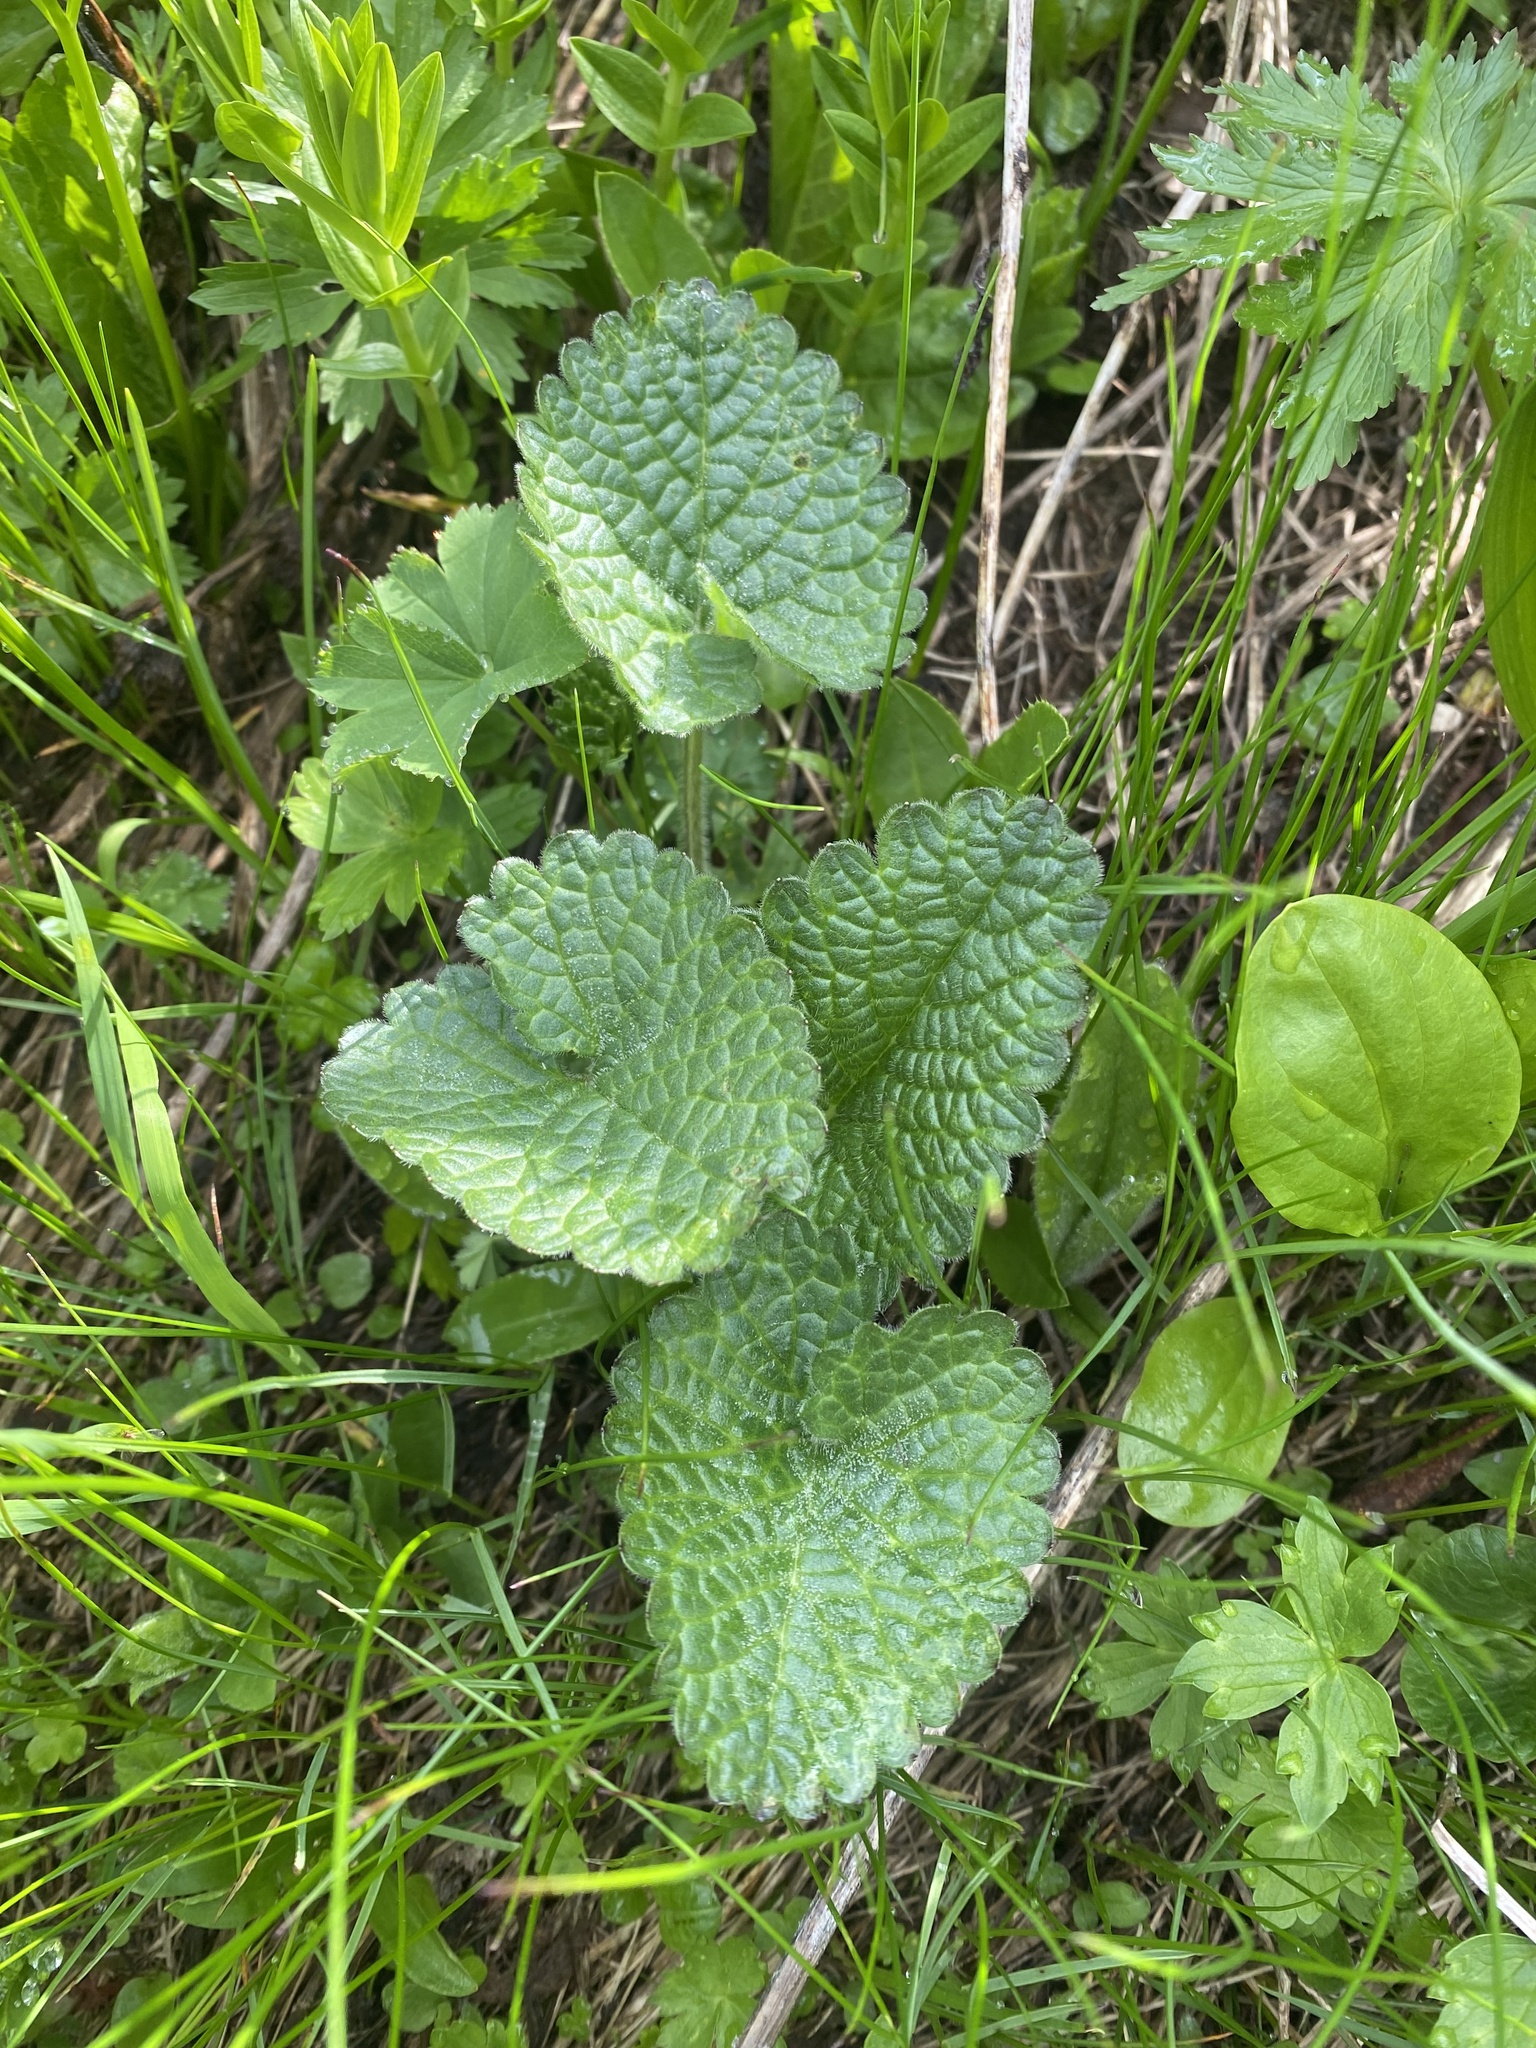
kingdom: Plantae
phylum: Tracheophyta
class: Magnoliopsida
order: Lamiales
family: Lamiaceae
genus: Betonica
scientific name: Betonica macrantha
